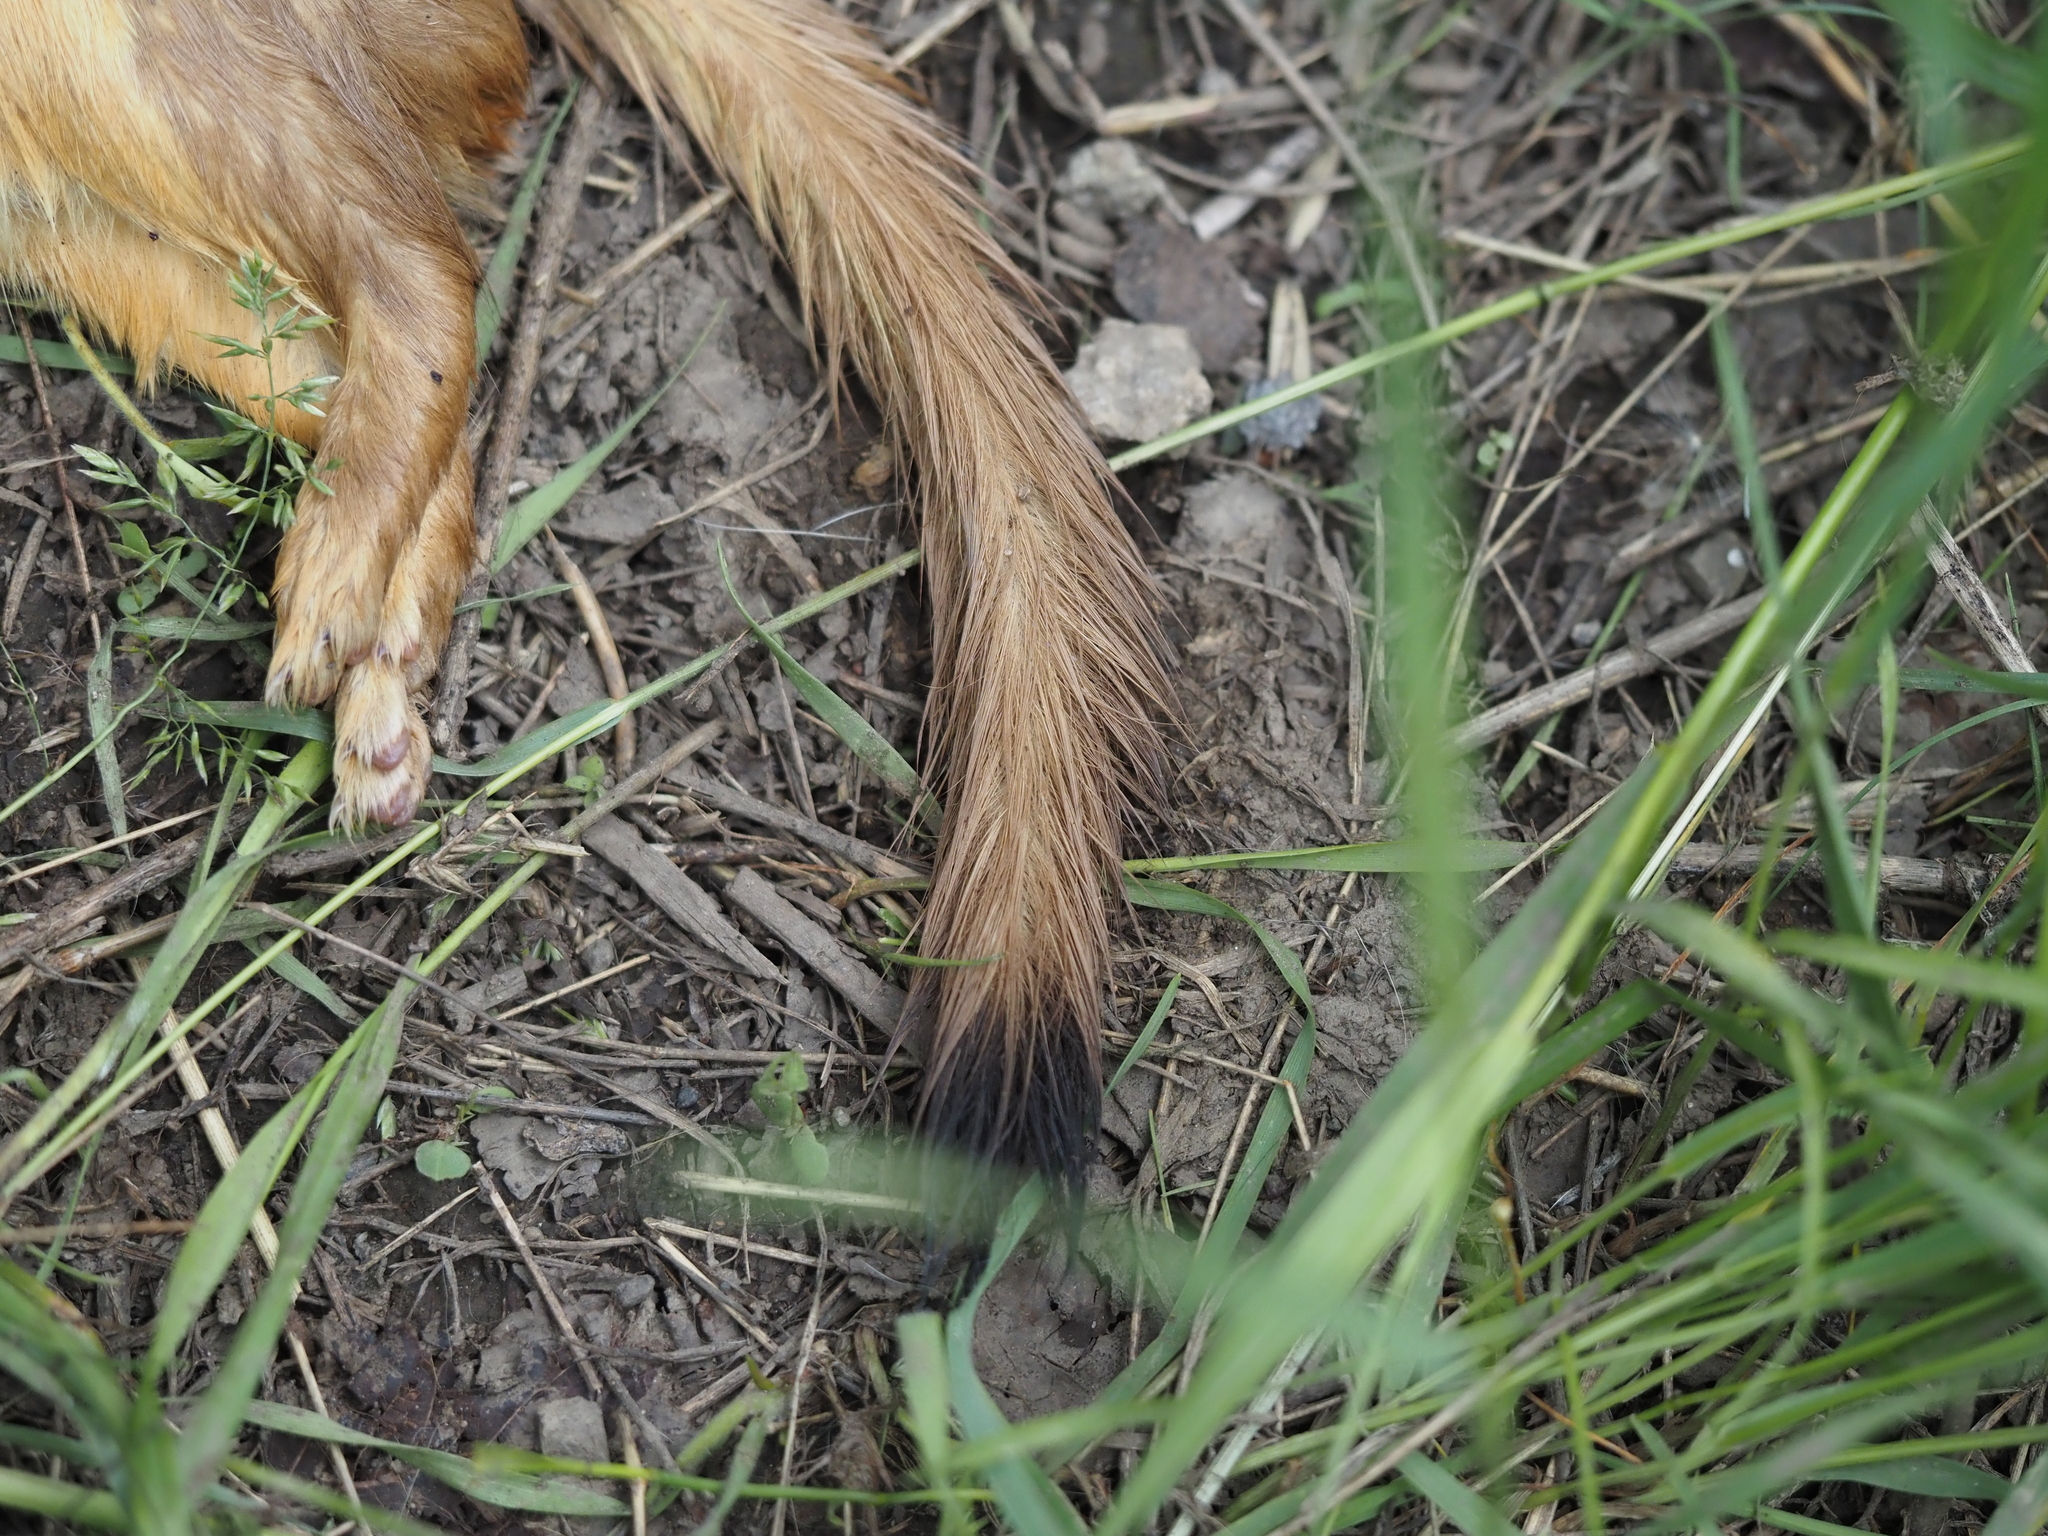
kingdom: Animalia
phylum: Chordata
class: Mammalia
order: Carnivora
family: Mustelidae
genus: Mustela
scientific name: Mustela
